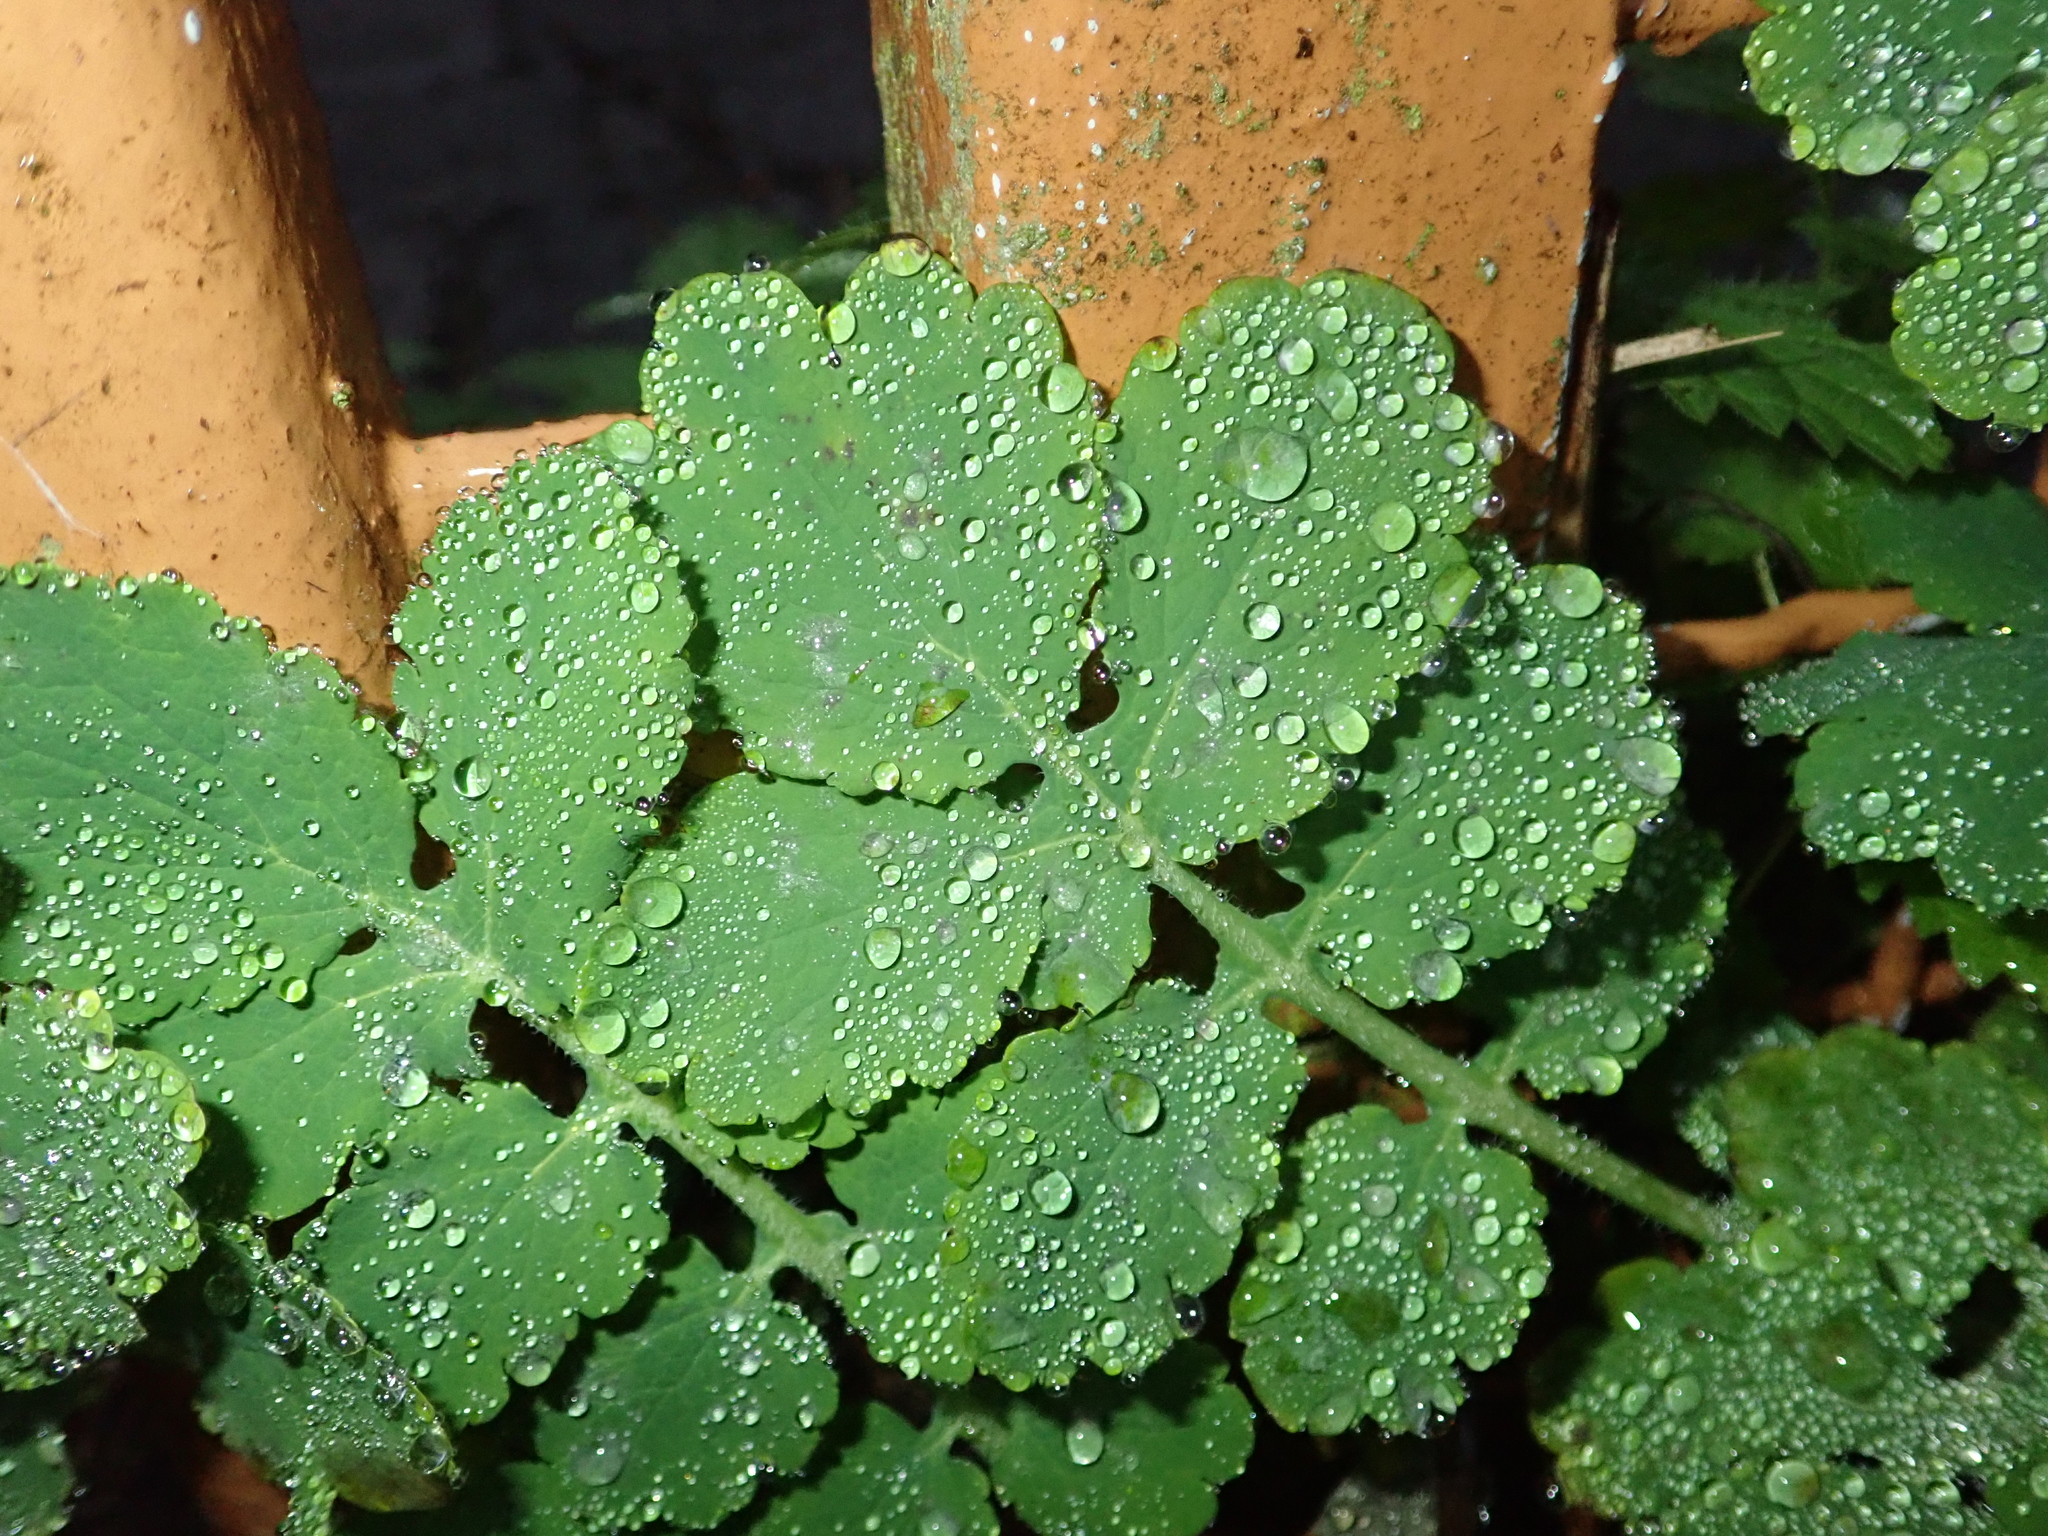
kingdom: Plantae
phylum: Tracheophyta
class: Magnoliopsida
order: Ranunculales
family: Papaveraceae
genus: Chelidonium
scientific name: Chelidonium majus
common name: Greater celandine
